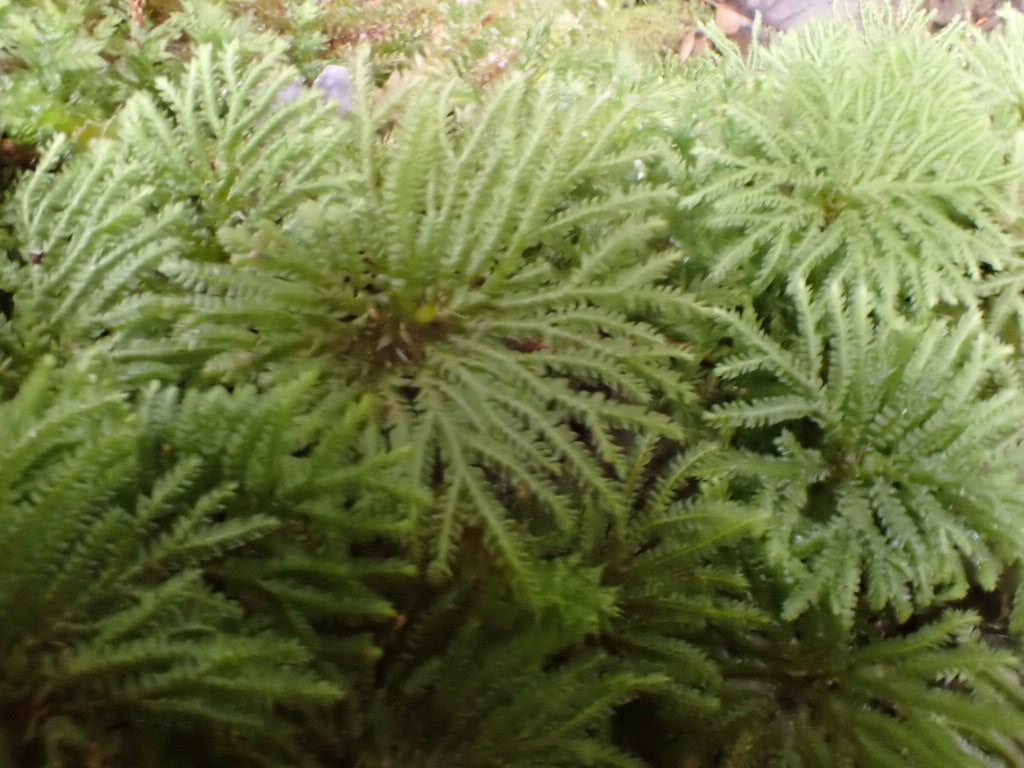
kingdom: Plantae
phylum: Bryophyta
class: Bryopsida
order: Hypopterygiales
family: Hypopterygiaceae
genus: Canalohypopterygium
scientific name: Canalohypopterygium tamariscinum
